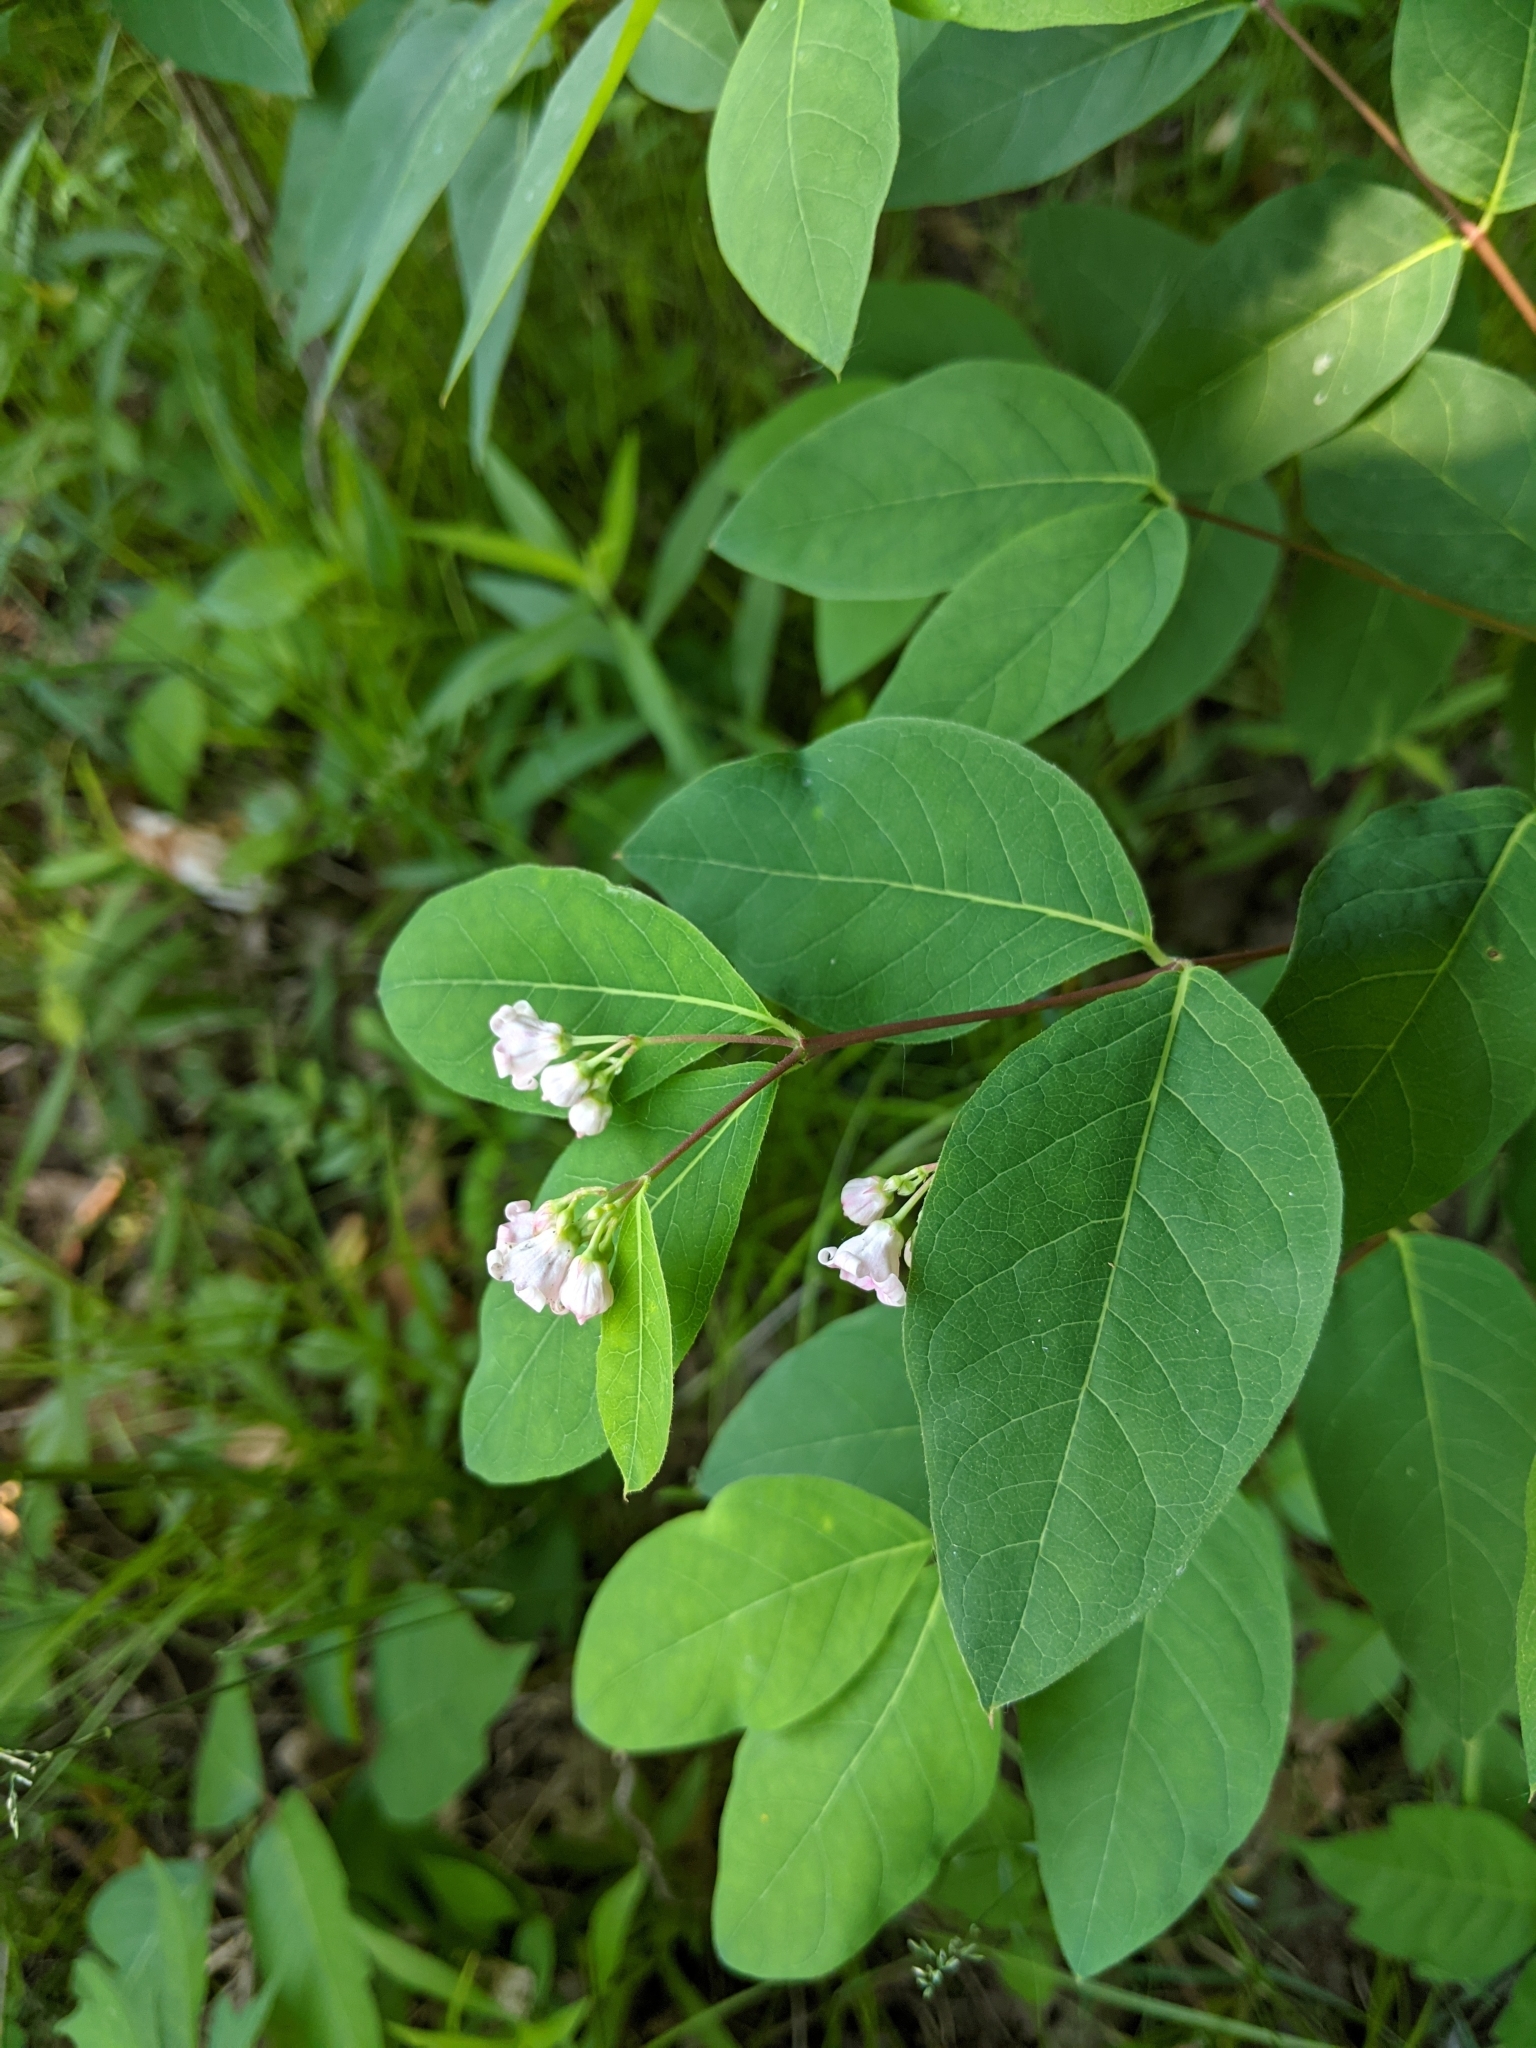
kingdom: Plantae
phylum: Tracheophyta
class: Magnoliopsida
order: Gentianales
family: Apocynaceae
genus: Apocynum
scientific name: Apocynum androsaemifolium
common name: Spreading dogbane
